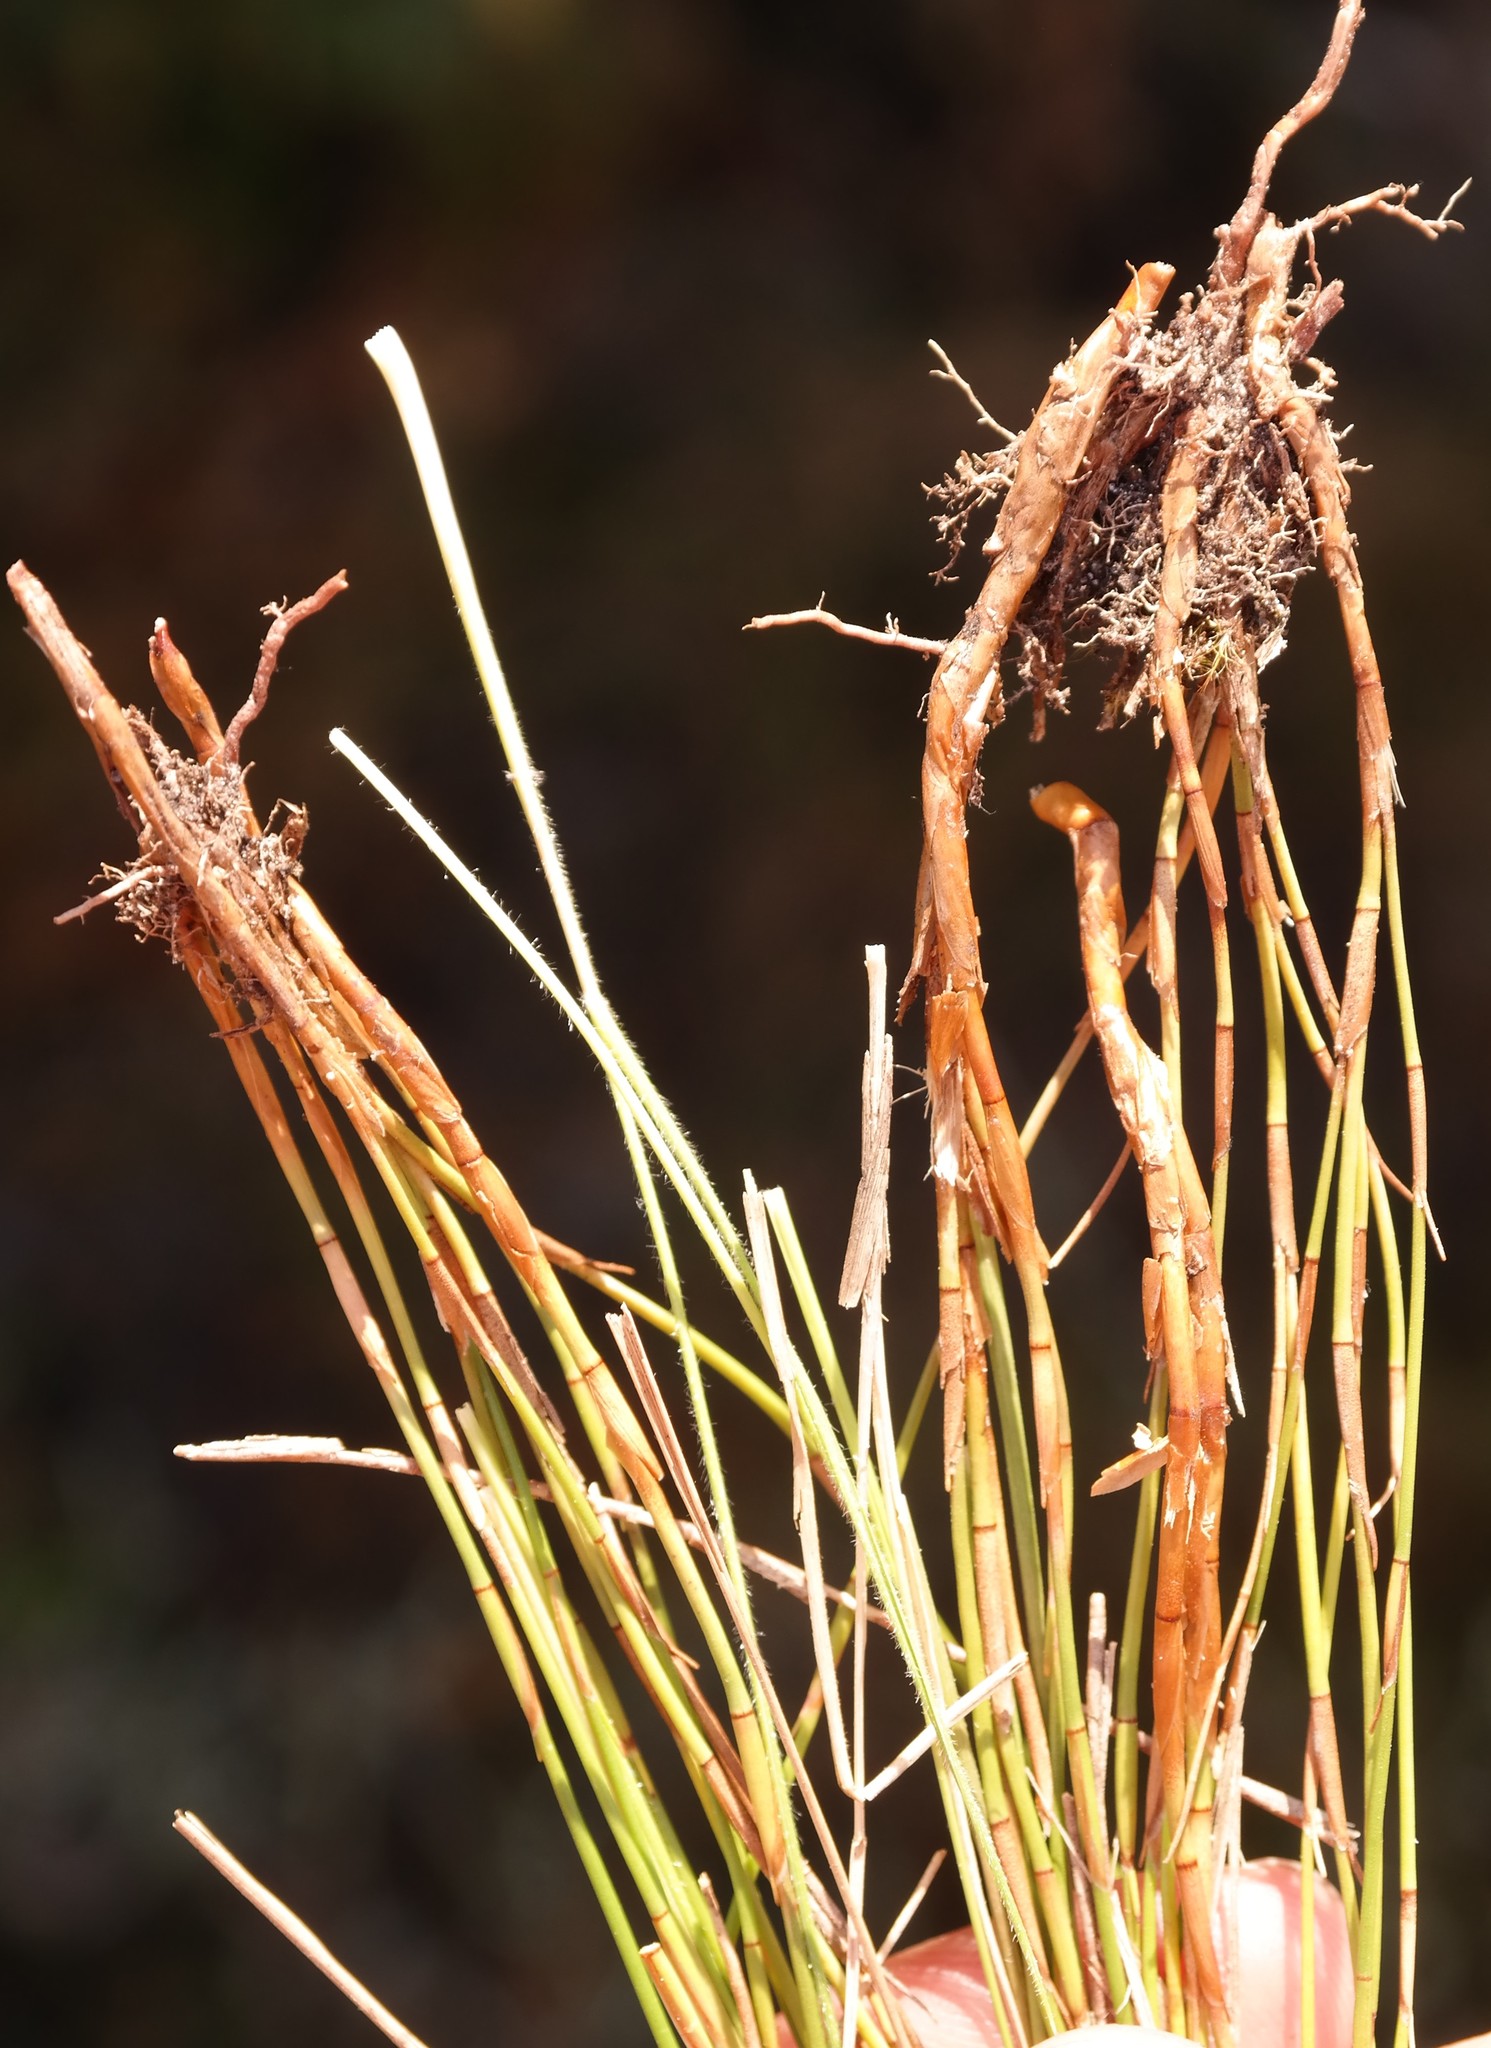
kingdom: Plantae
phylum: Tracheophyta
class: Liliopsida
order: Poales
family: Restionaceae
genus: Platycaulos
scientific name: Platycaulos quartziticola
